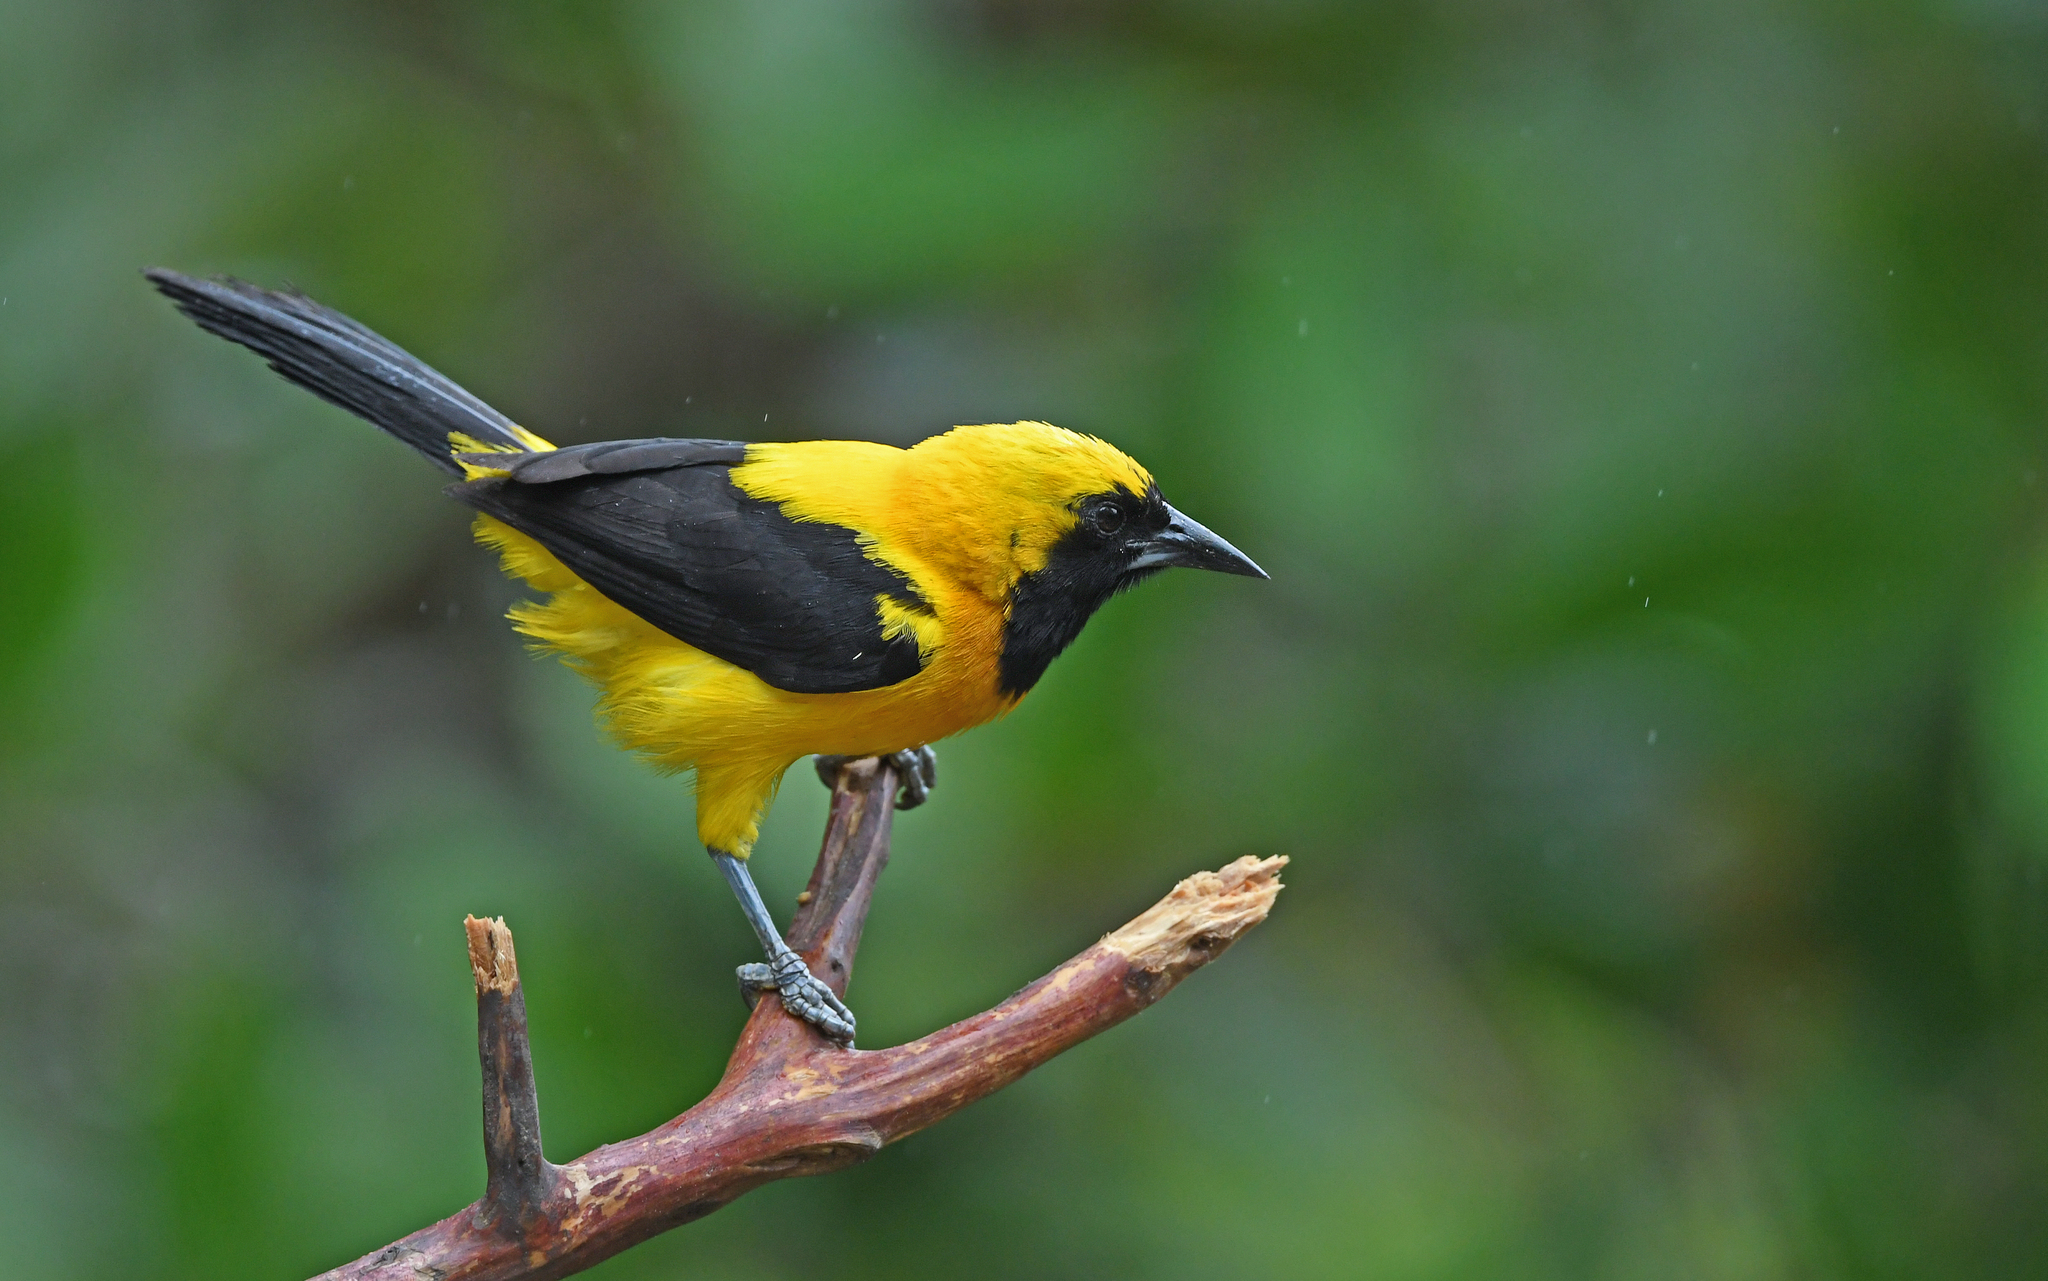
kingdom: Animalia
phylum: Chordata
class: Aves
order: Passeriformes
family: Icteridae
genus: Icterus
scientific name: Icterus chrysater
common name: Yellow-backed oriole
